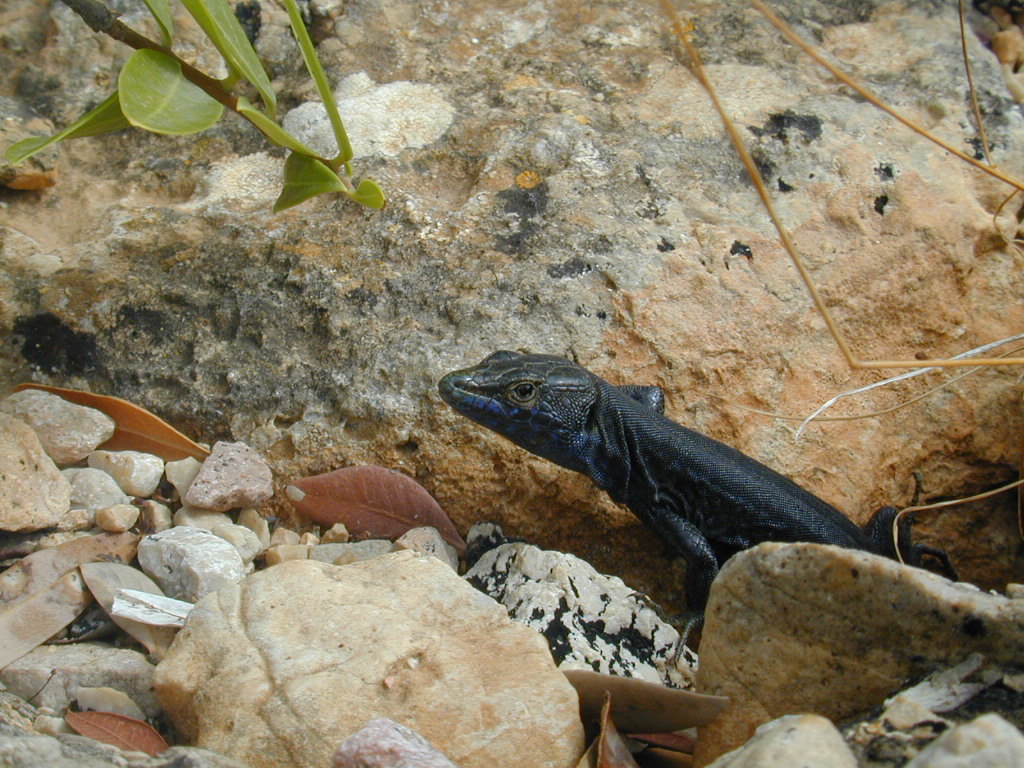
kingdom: Animalia
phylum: Chordata
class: Squamata
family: Lacertidae
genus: Podarcis
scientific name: Podarcis lilfordi
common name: Belearic lizard
